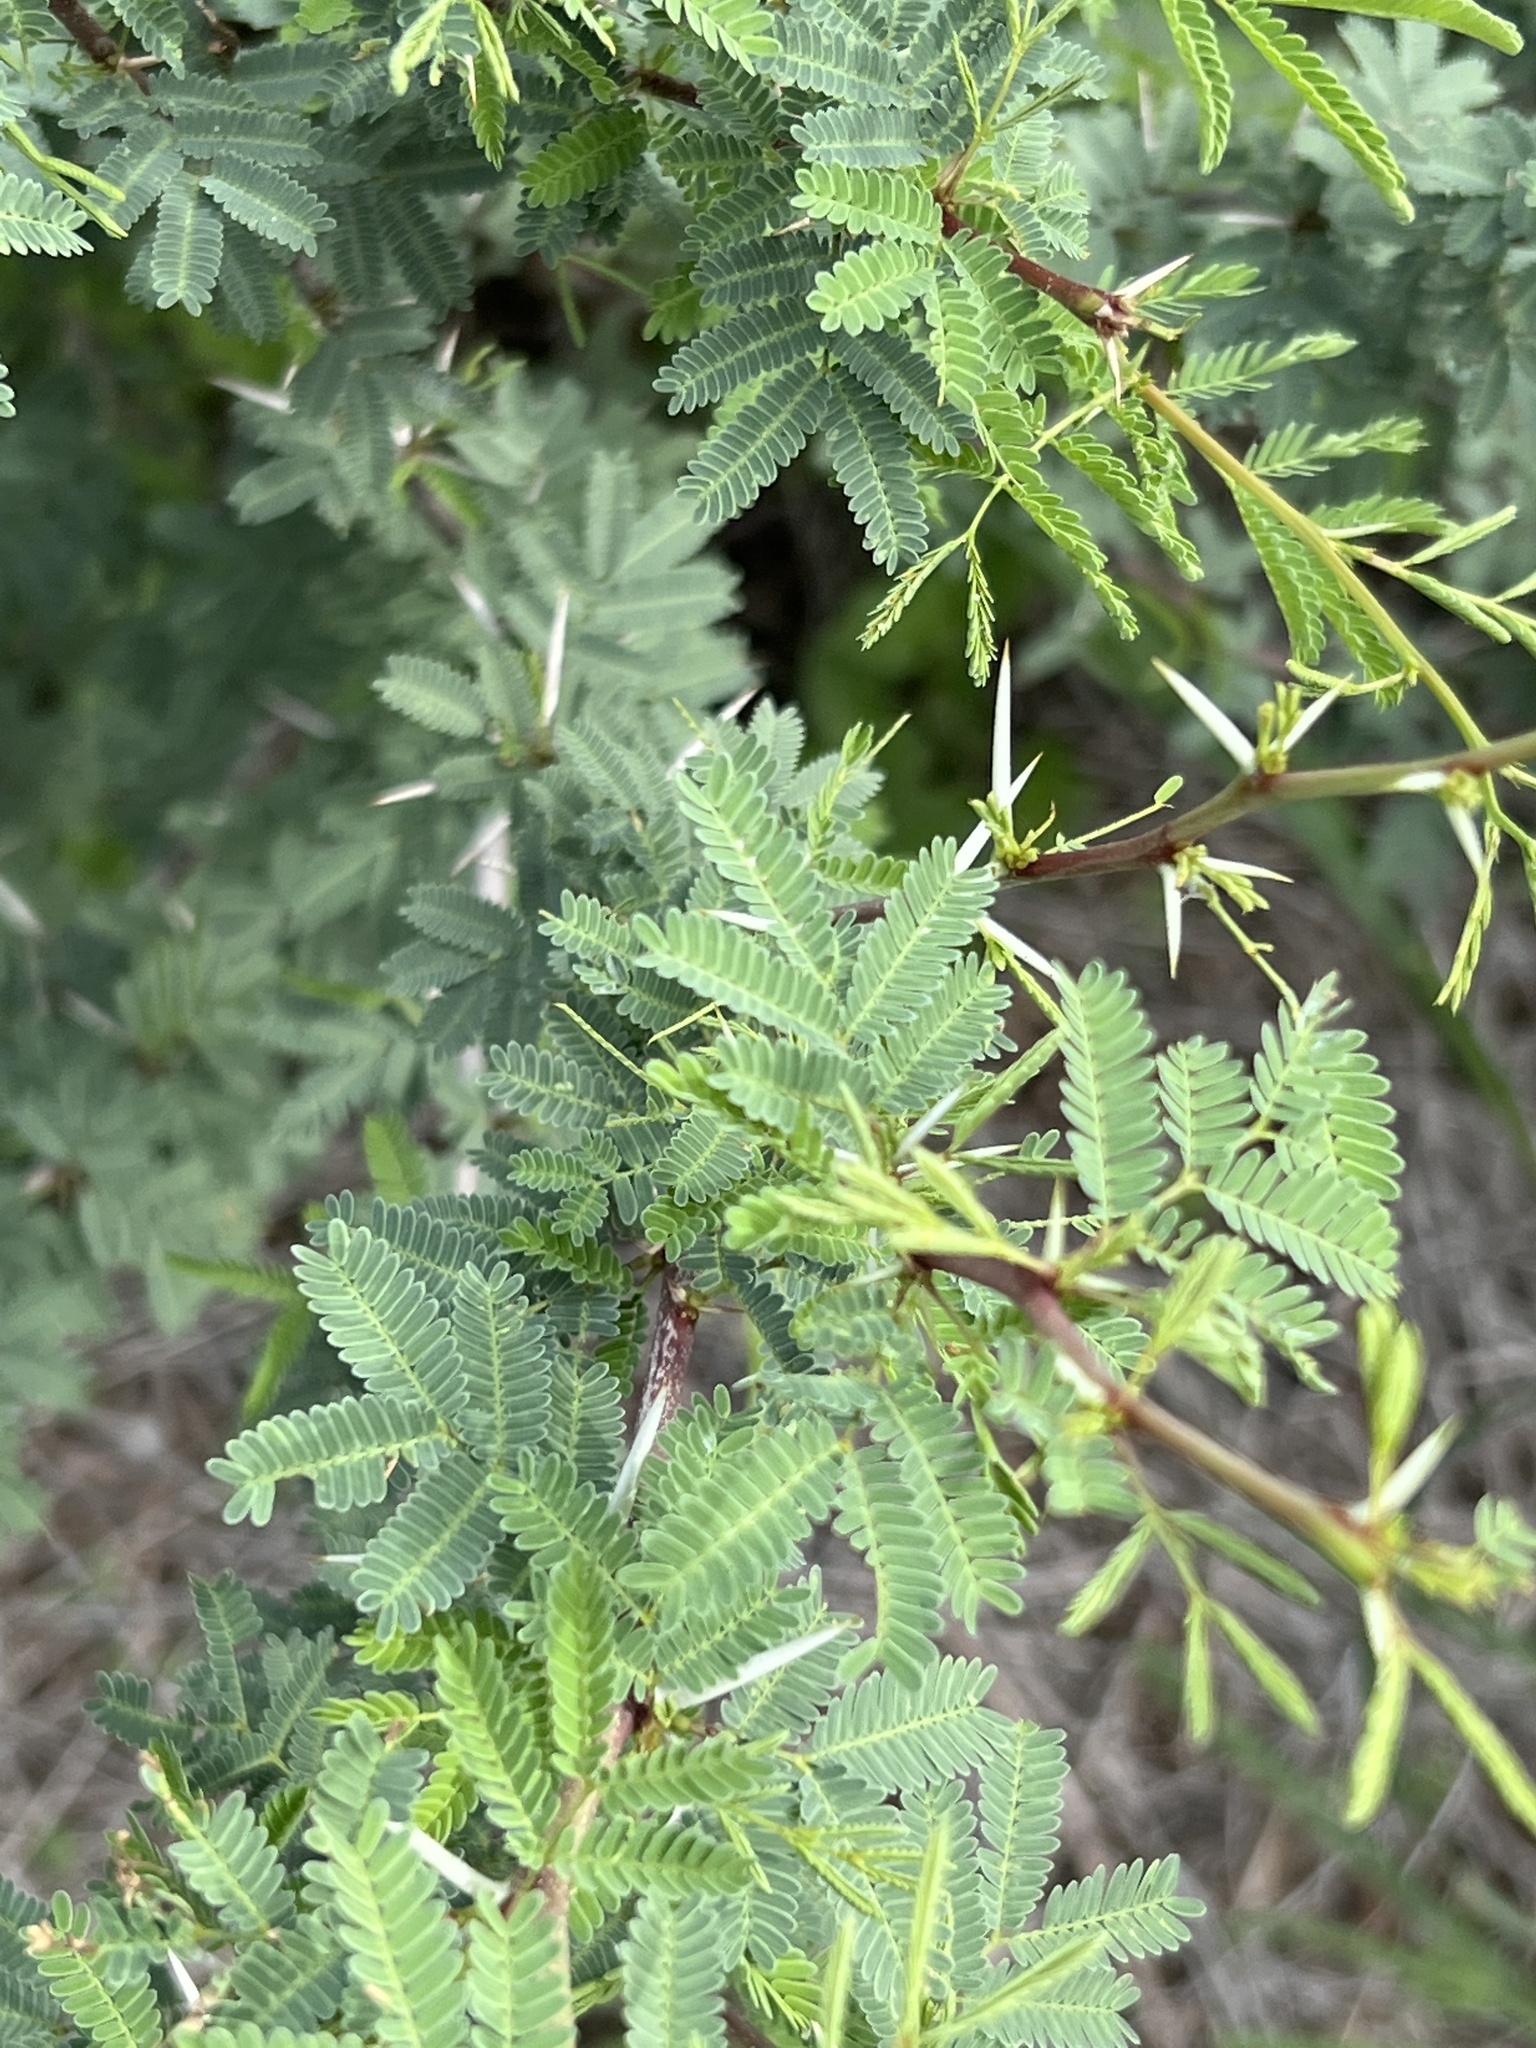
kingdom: Plantae
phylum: Tracheophyta
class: Magnoliopsida
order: Fabales
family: Fabaceae
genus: Vachellia
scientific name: Vachellia farnesiana
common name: Sweet acacia
